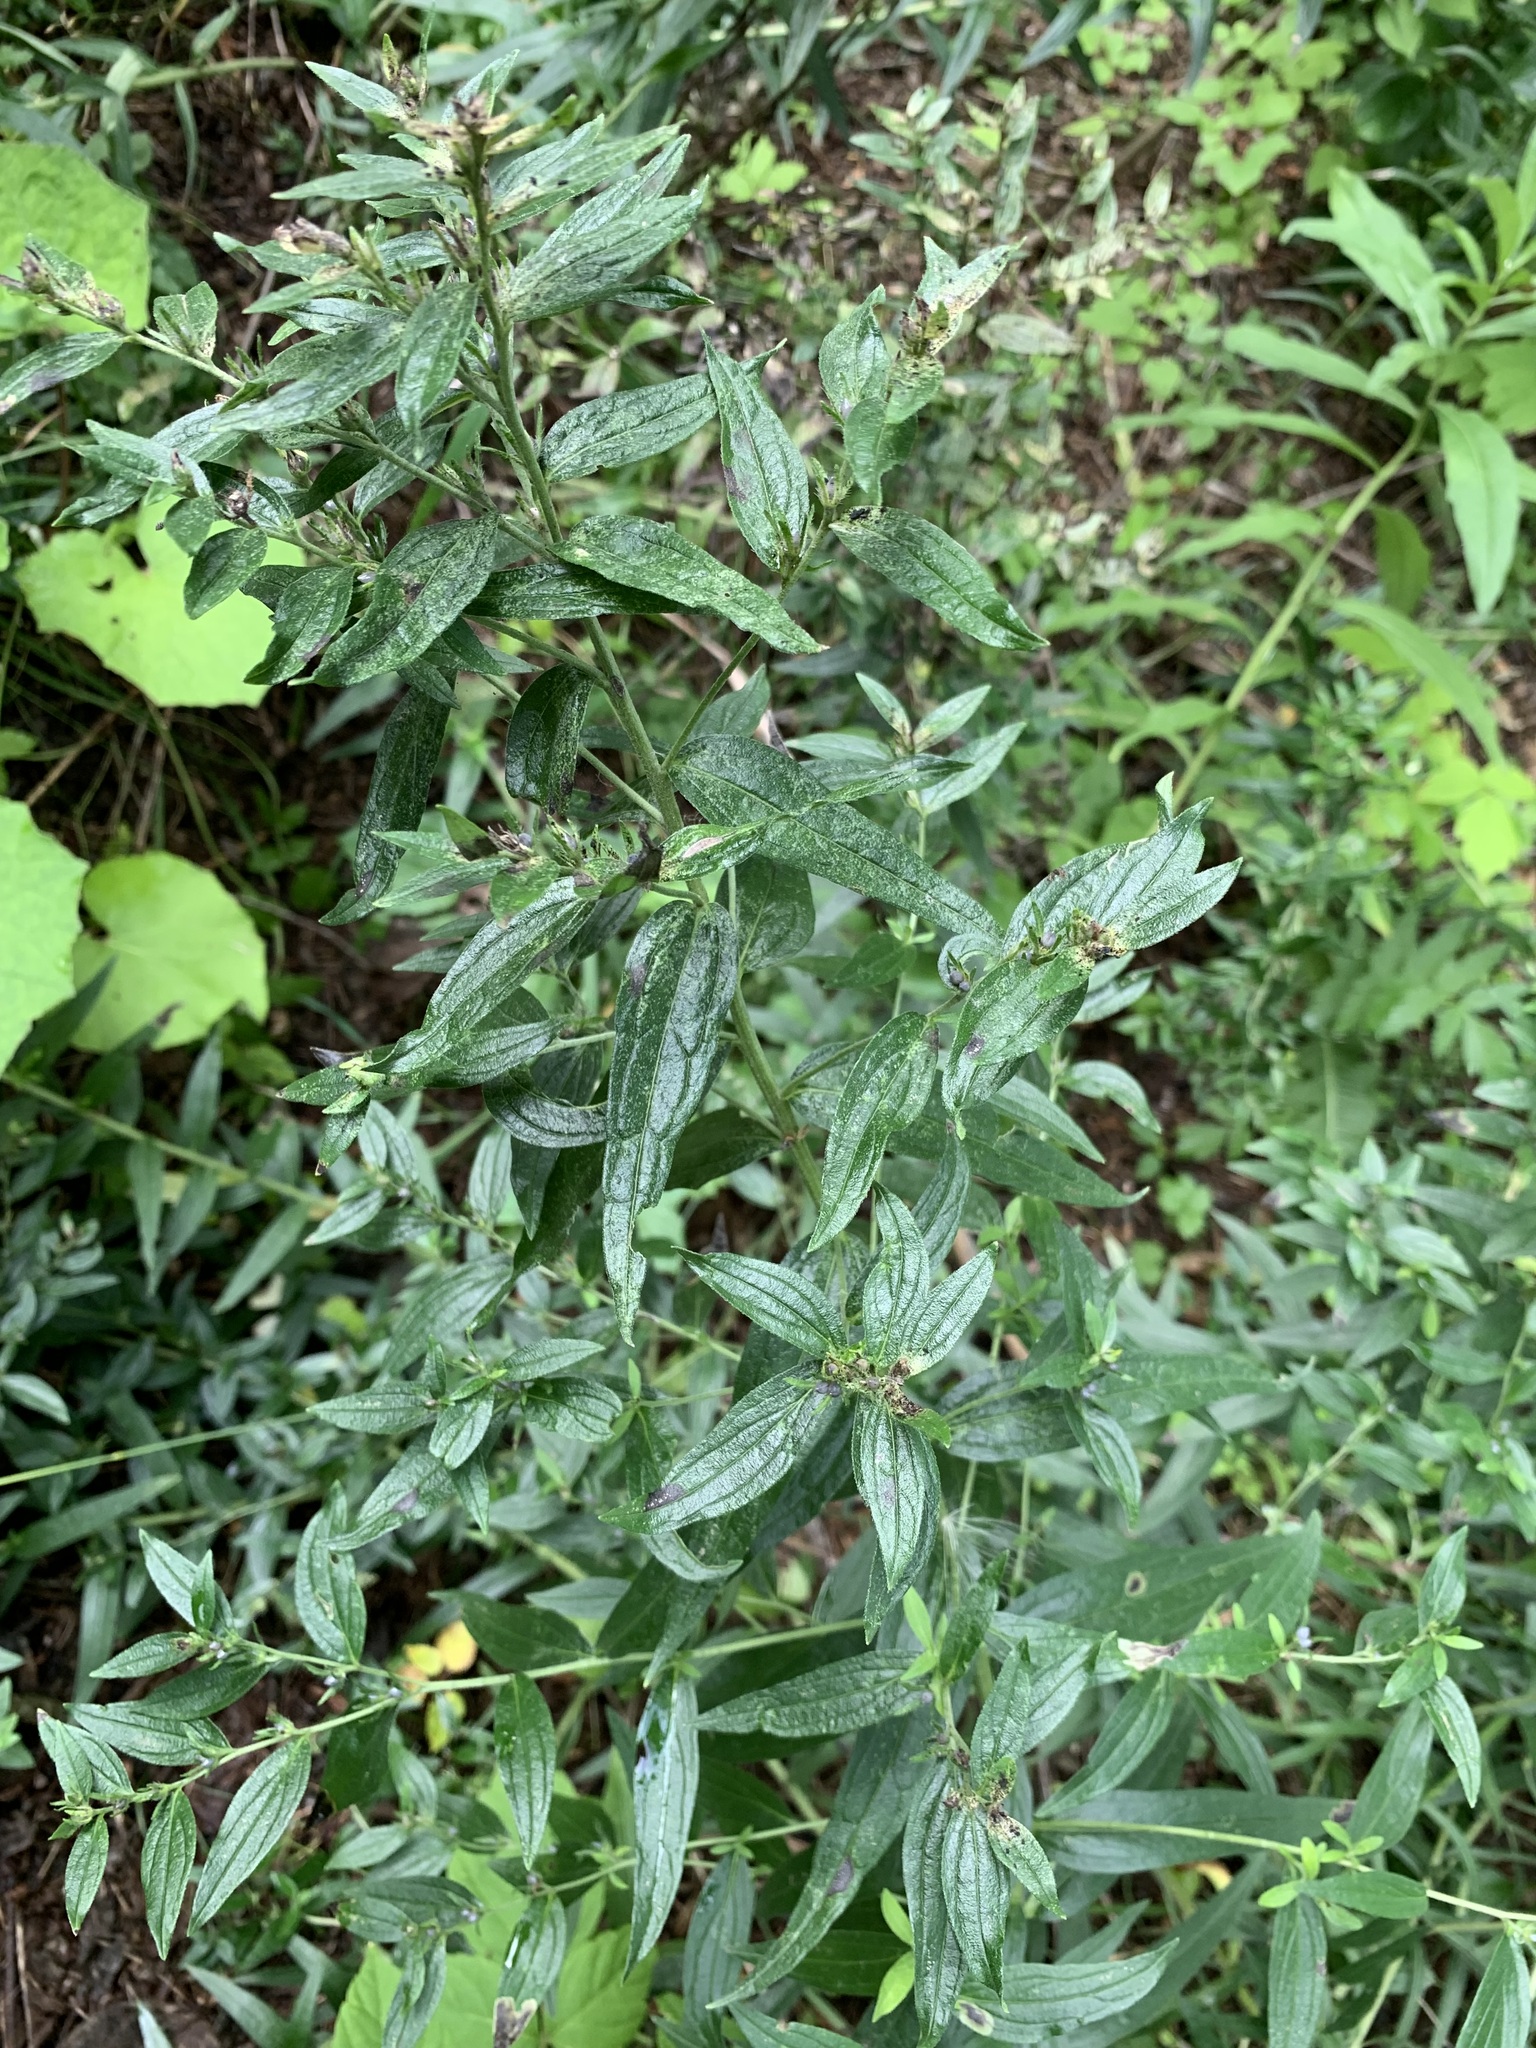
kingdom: Plantae
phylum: Tracheophyta
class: Magnoliopsida
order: Boraginales
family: Boraginaceae
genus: Lithospermum
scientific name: Lithospermum officinale
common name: Common gromwell
